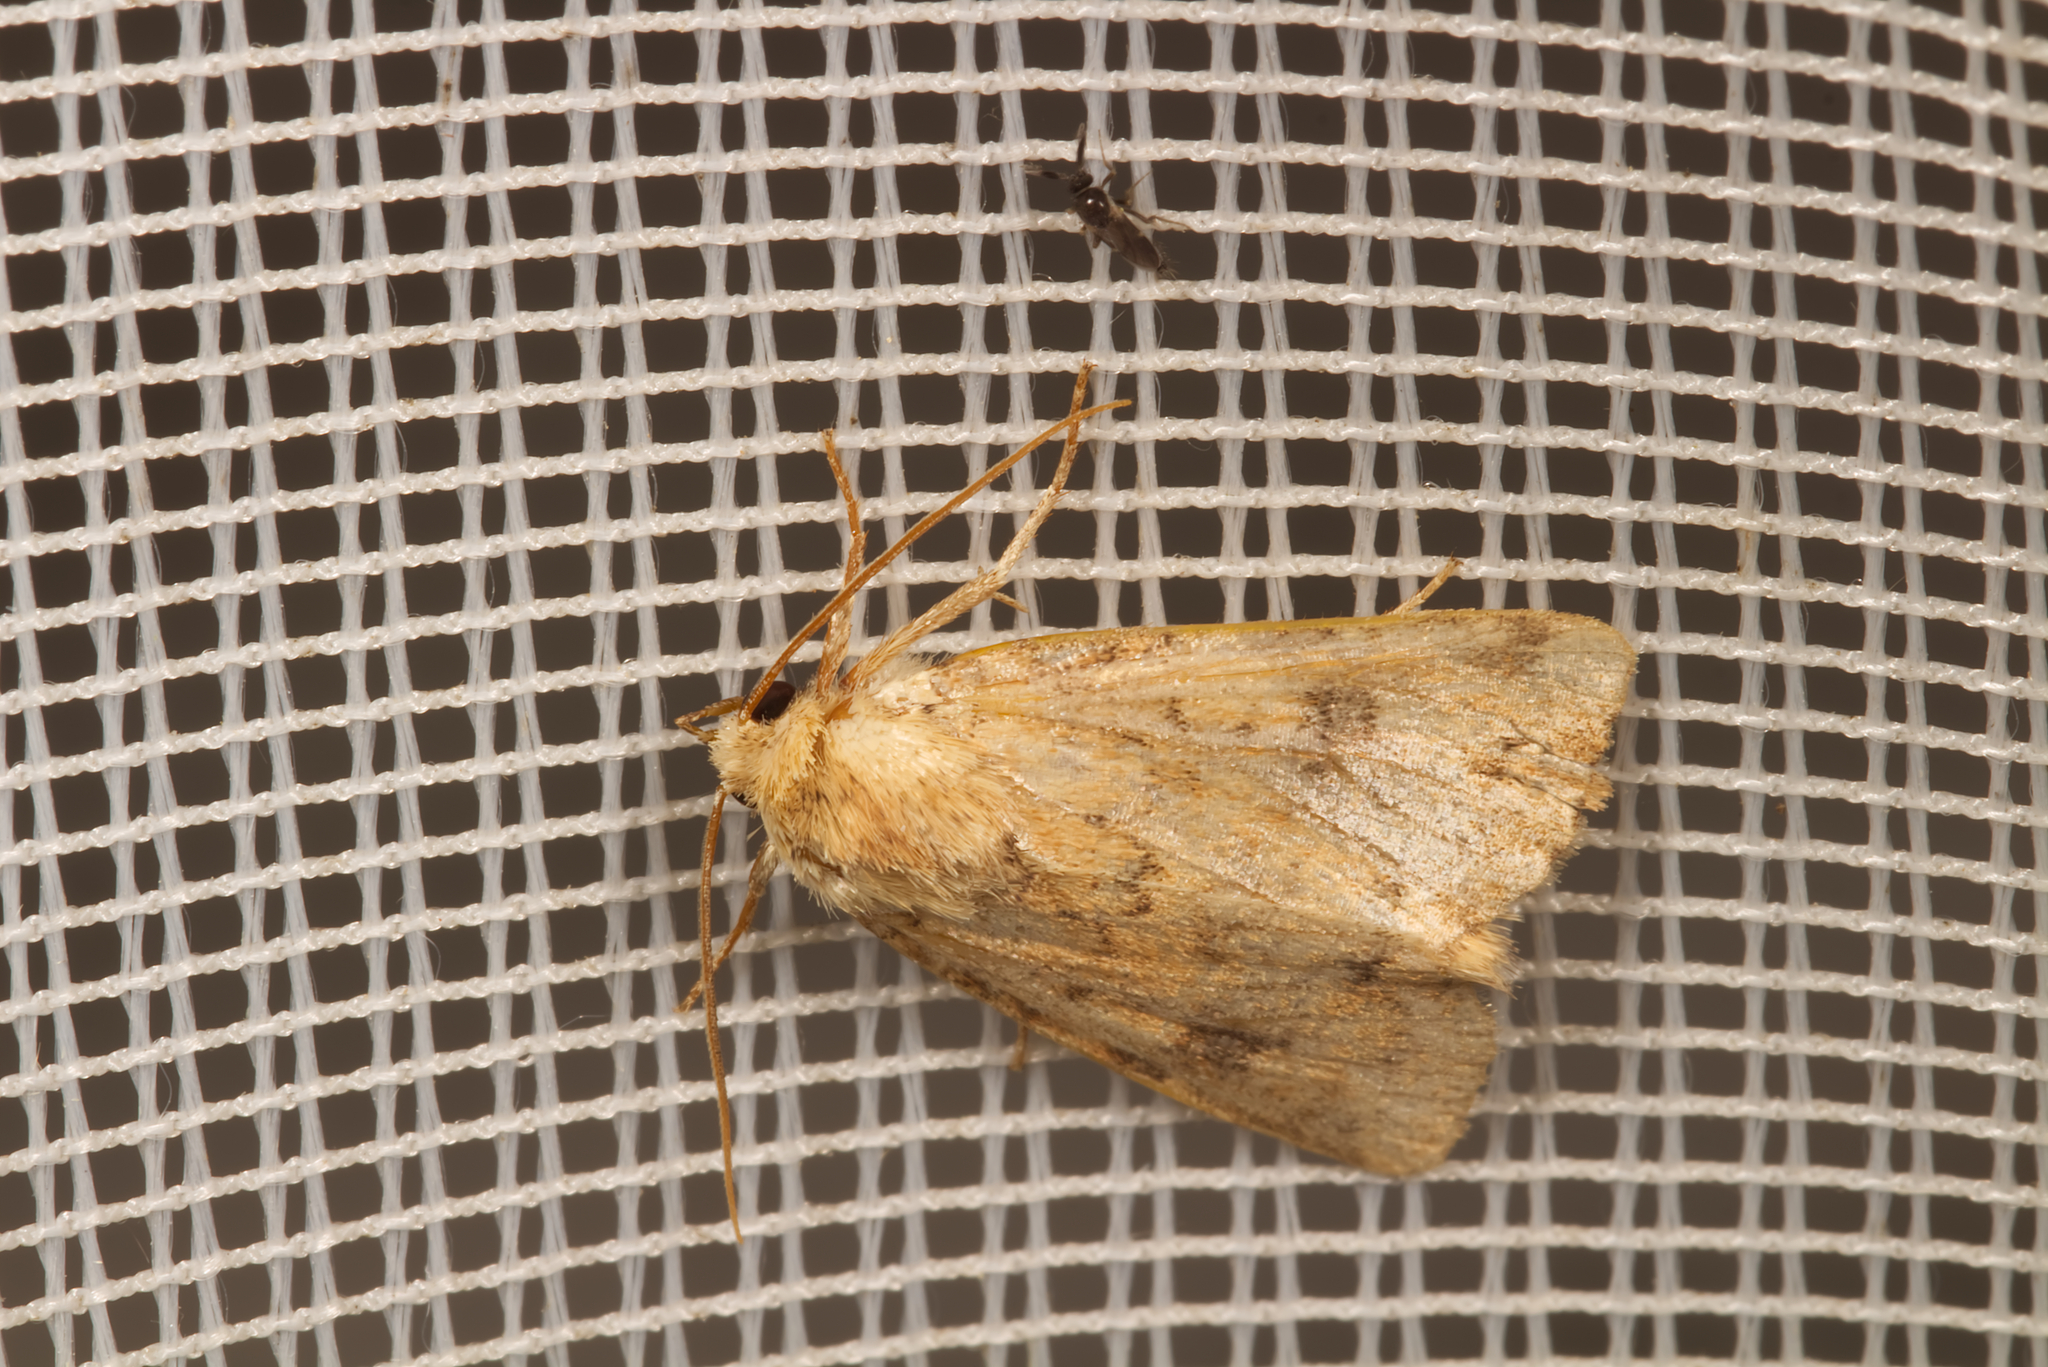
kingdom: Animalia
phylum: Arthropoda
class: Insecta
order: Lepidoptera
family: Noctuidae
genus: Atypha
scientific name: Atypha pulmonaris
